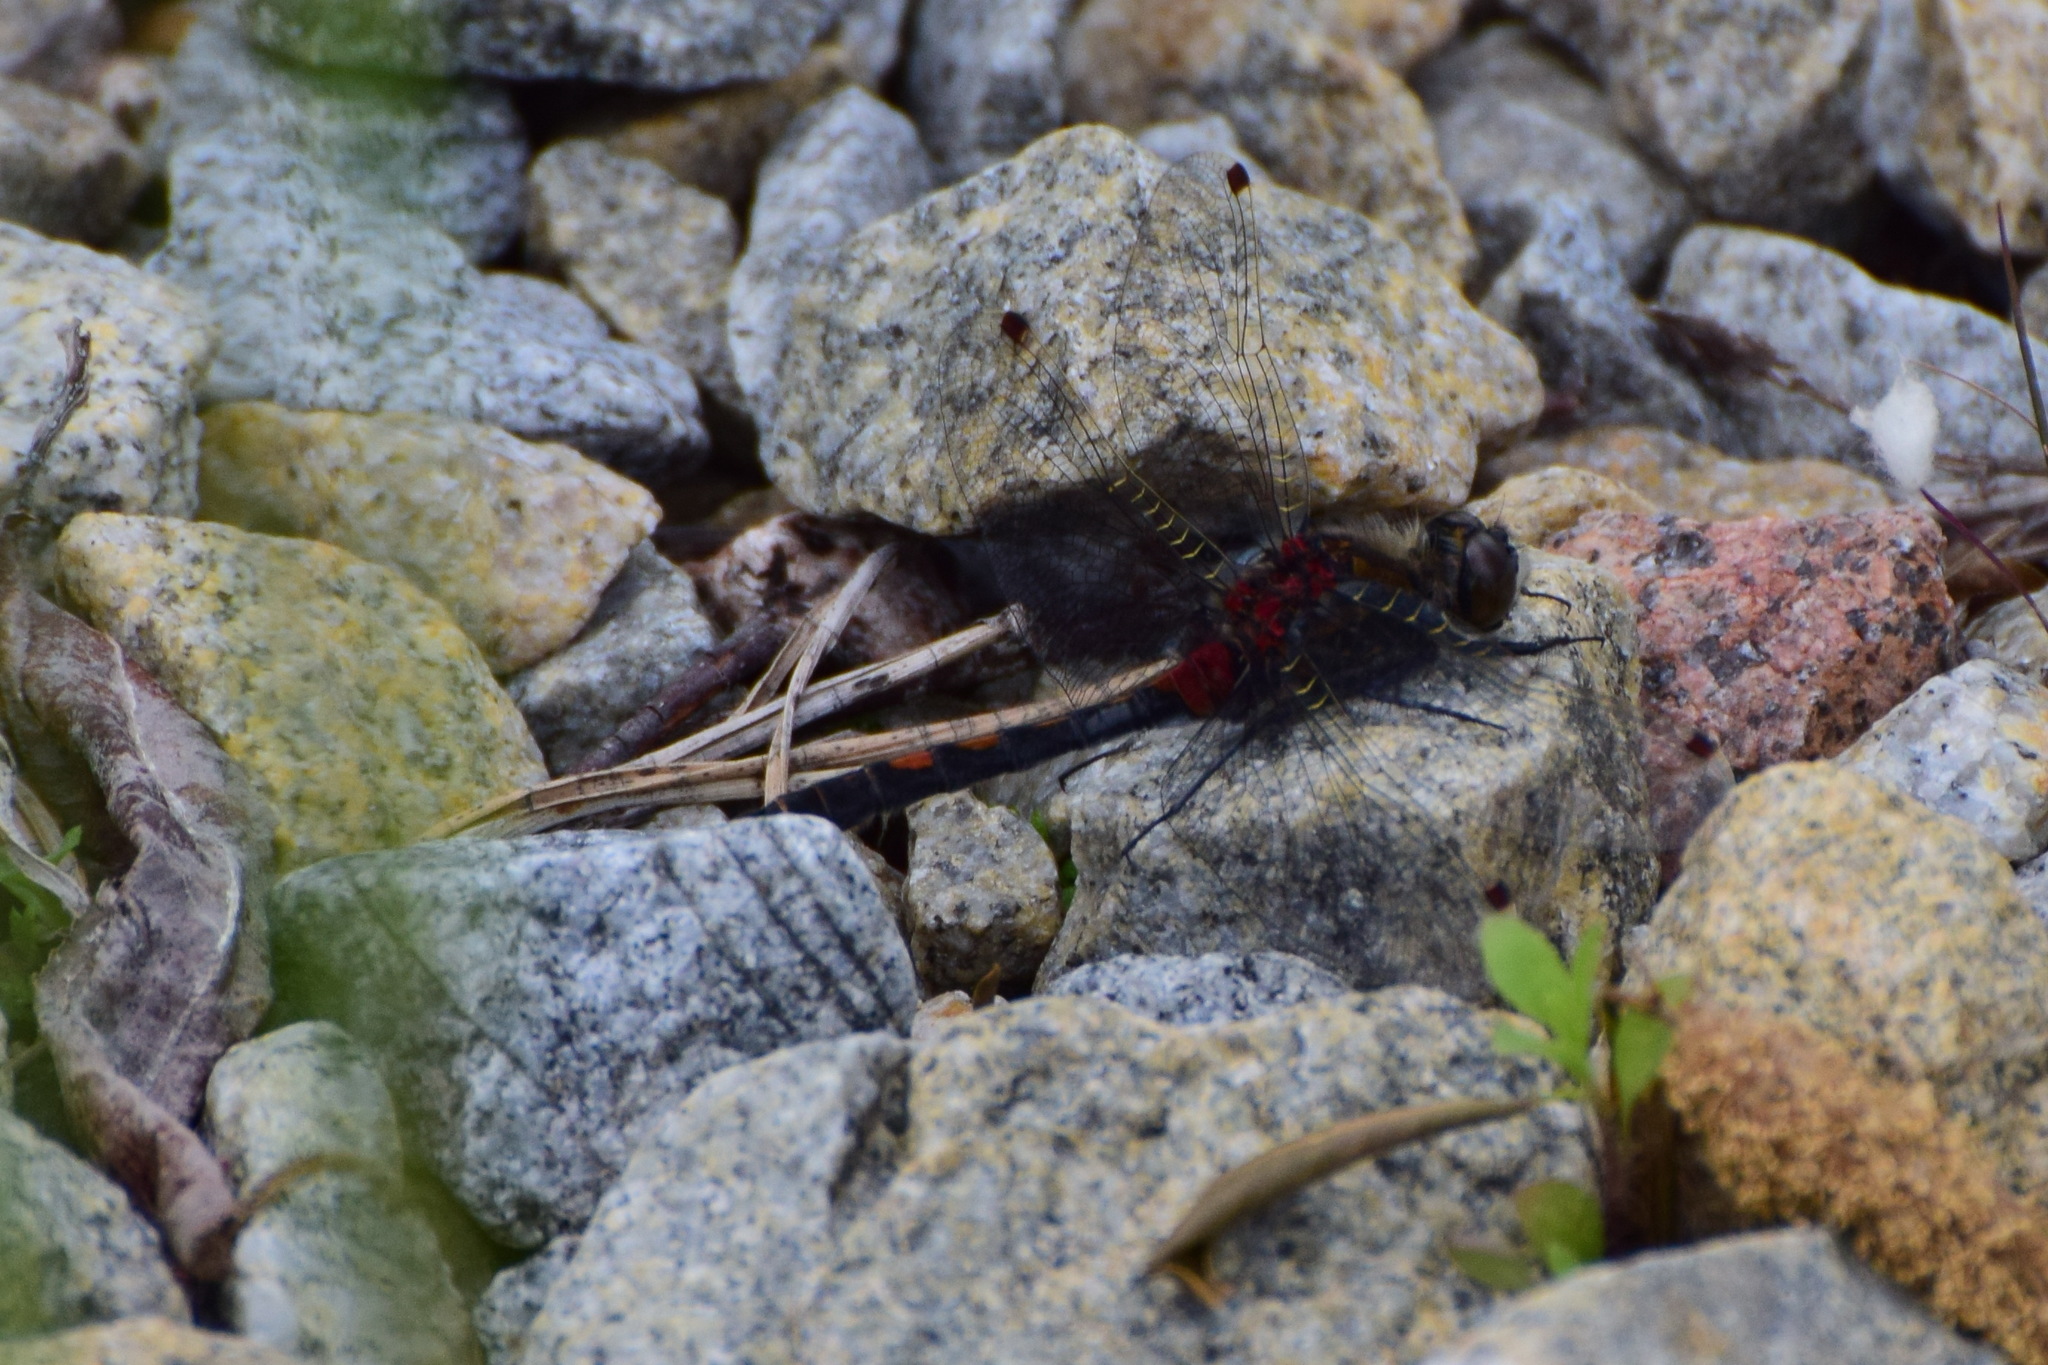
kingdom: Animalia
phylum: Arthropoda
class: Insecta
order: Odonata
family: Libellulidae
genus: Leucorrhinia
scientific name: Leucorrhinia rubicunda
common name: Ruby whiteface
